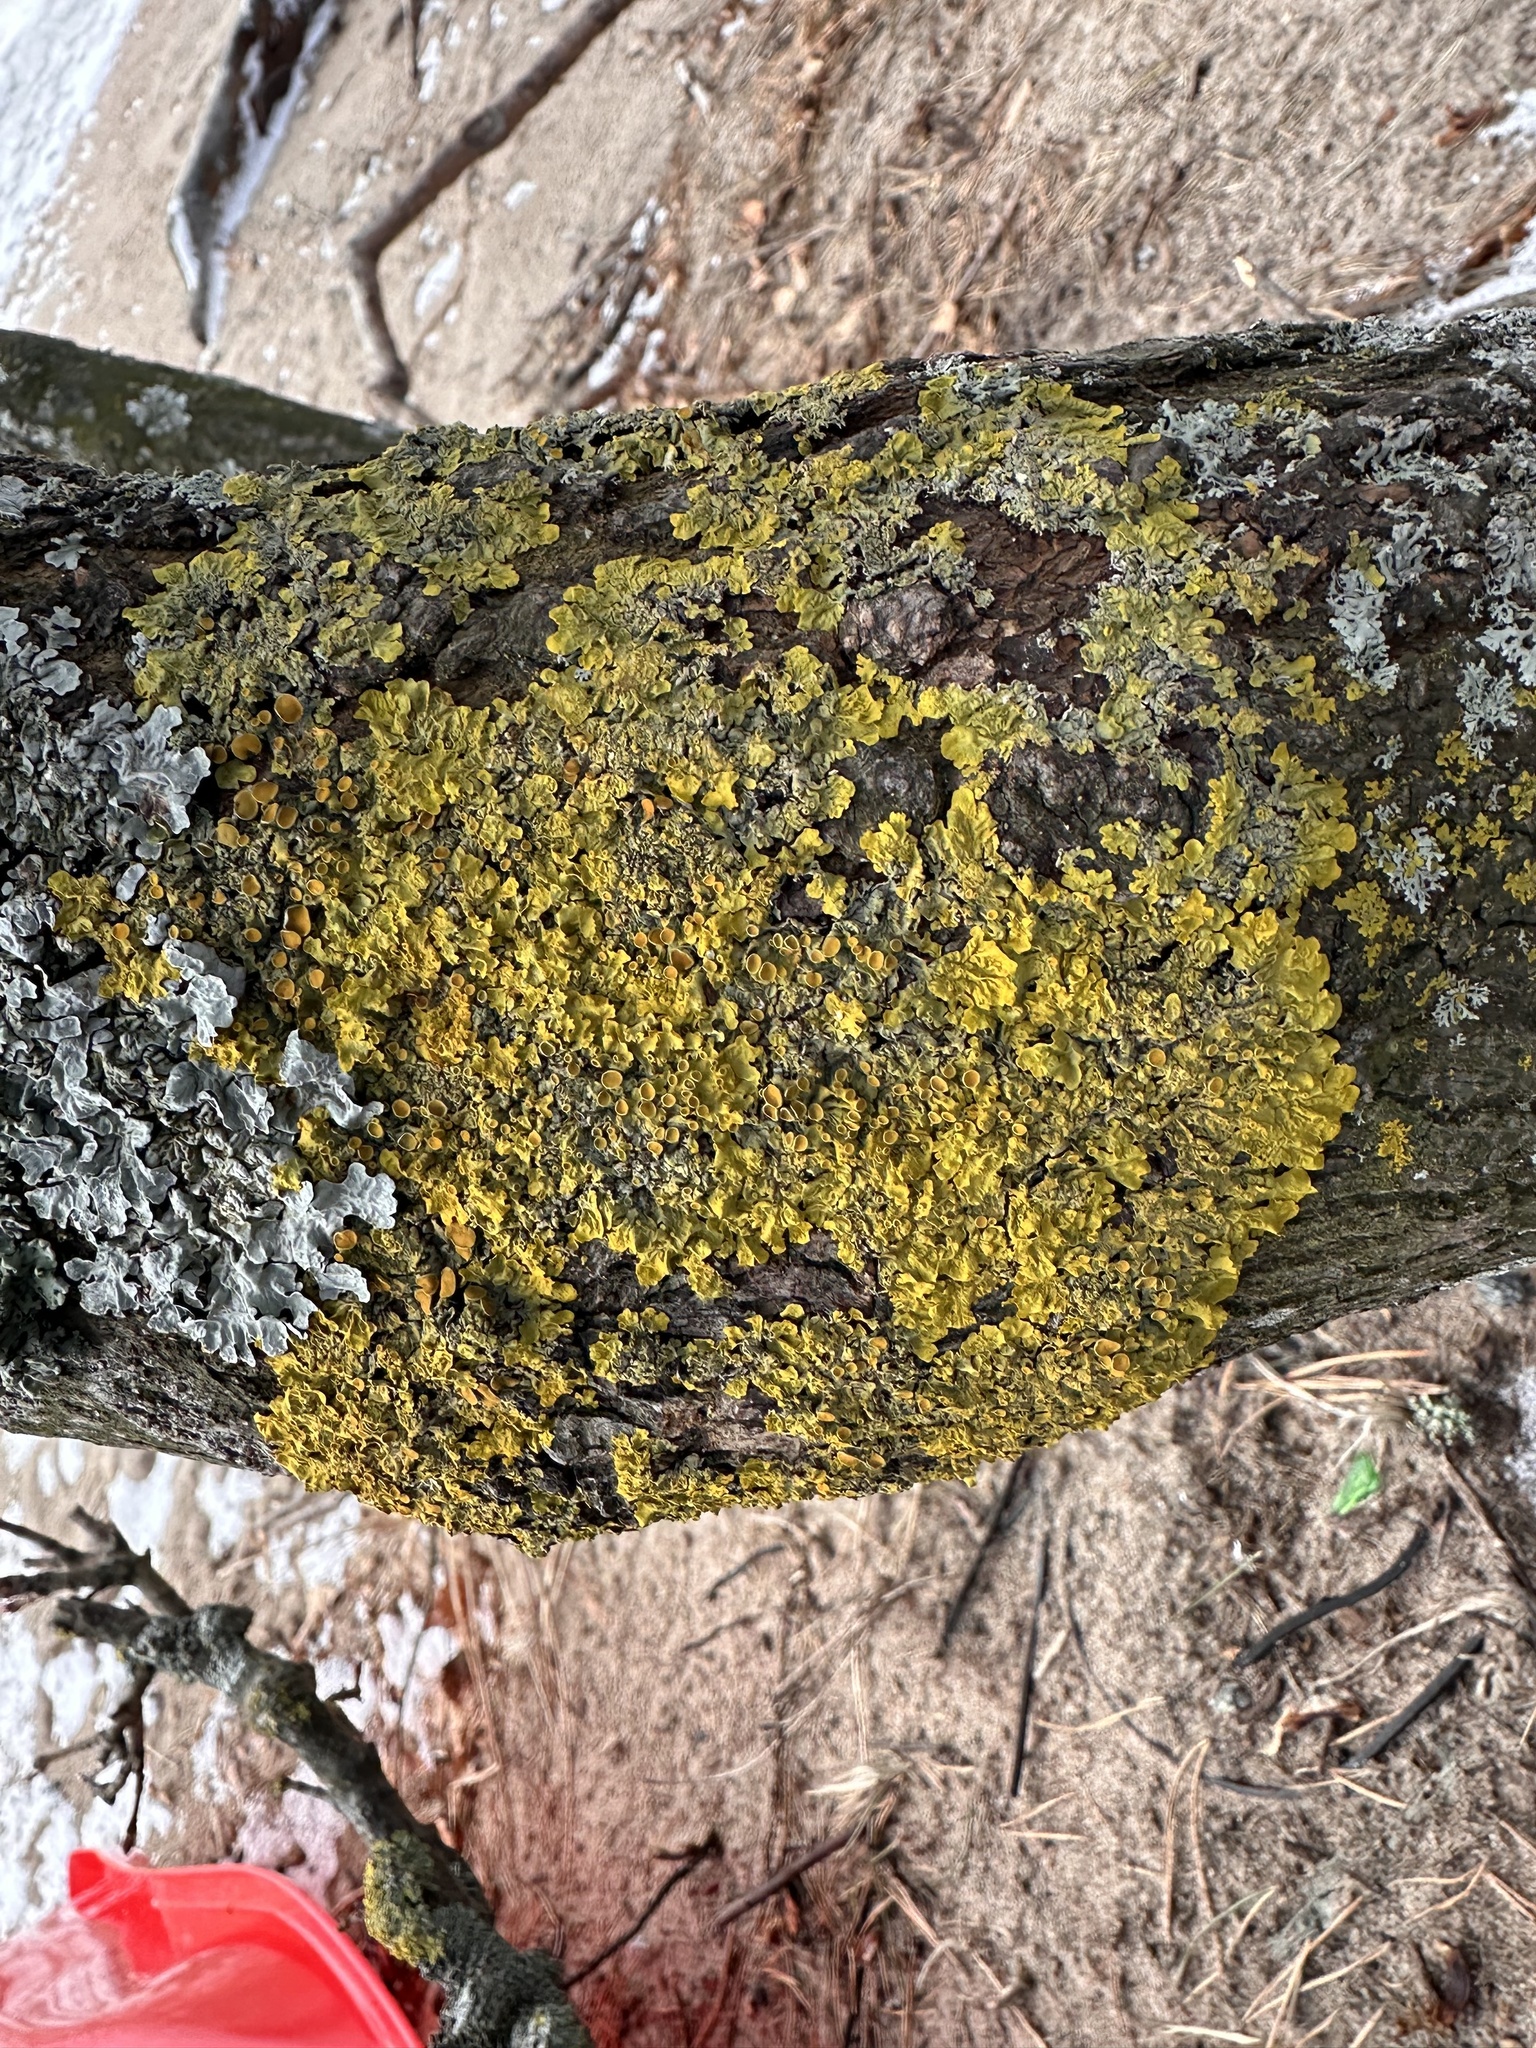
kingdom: Fungi
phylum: Ascomycota
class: Lecanoromycetes
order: Teloschistales
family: Teloschistaceae
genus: Xanthoria
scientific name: Xanthoria parietina
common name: Common orange lichen
